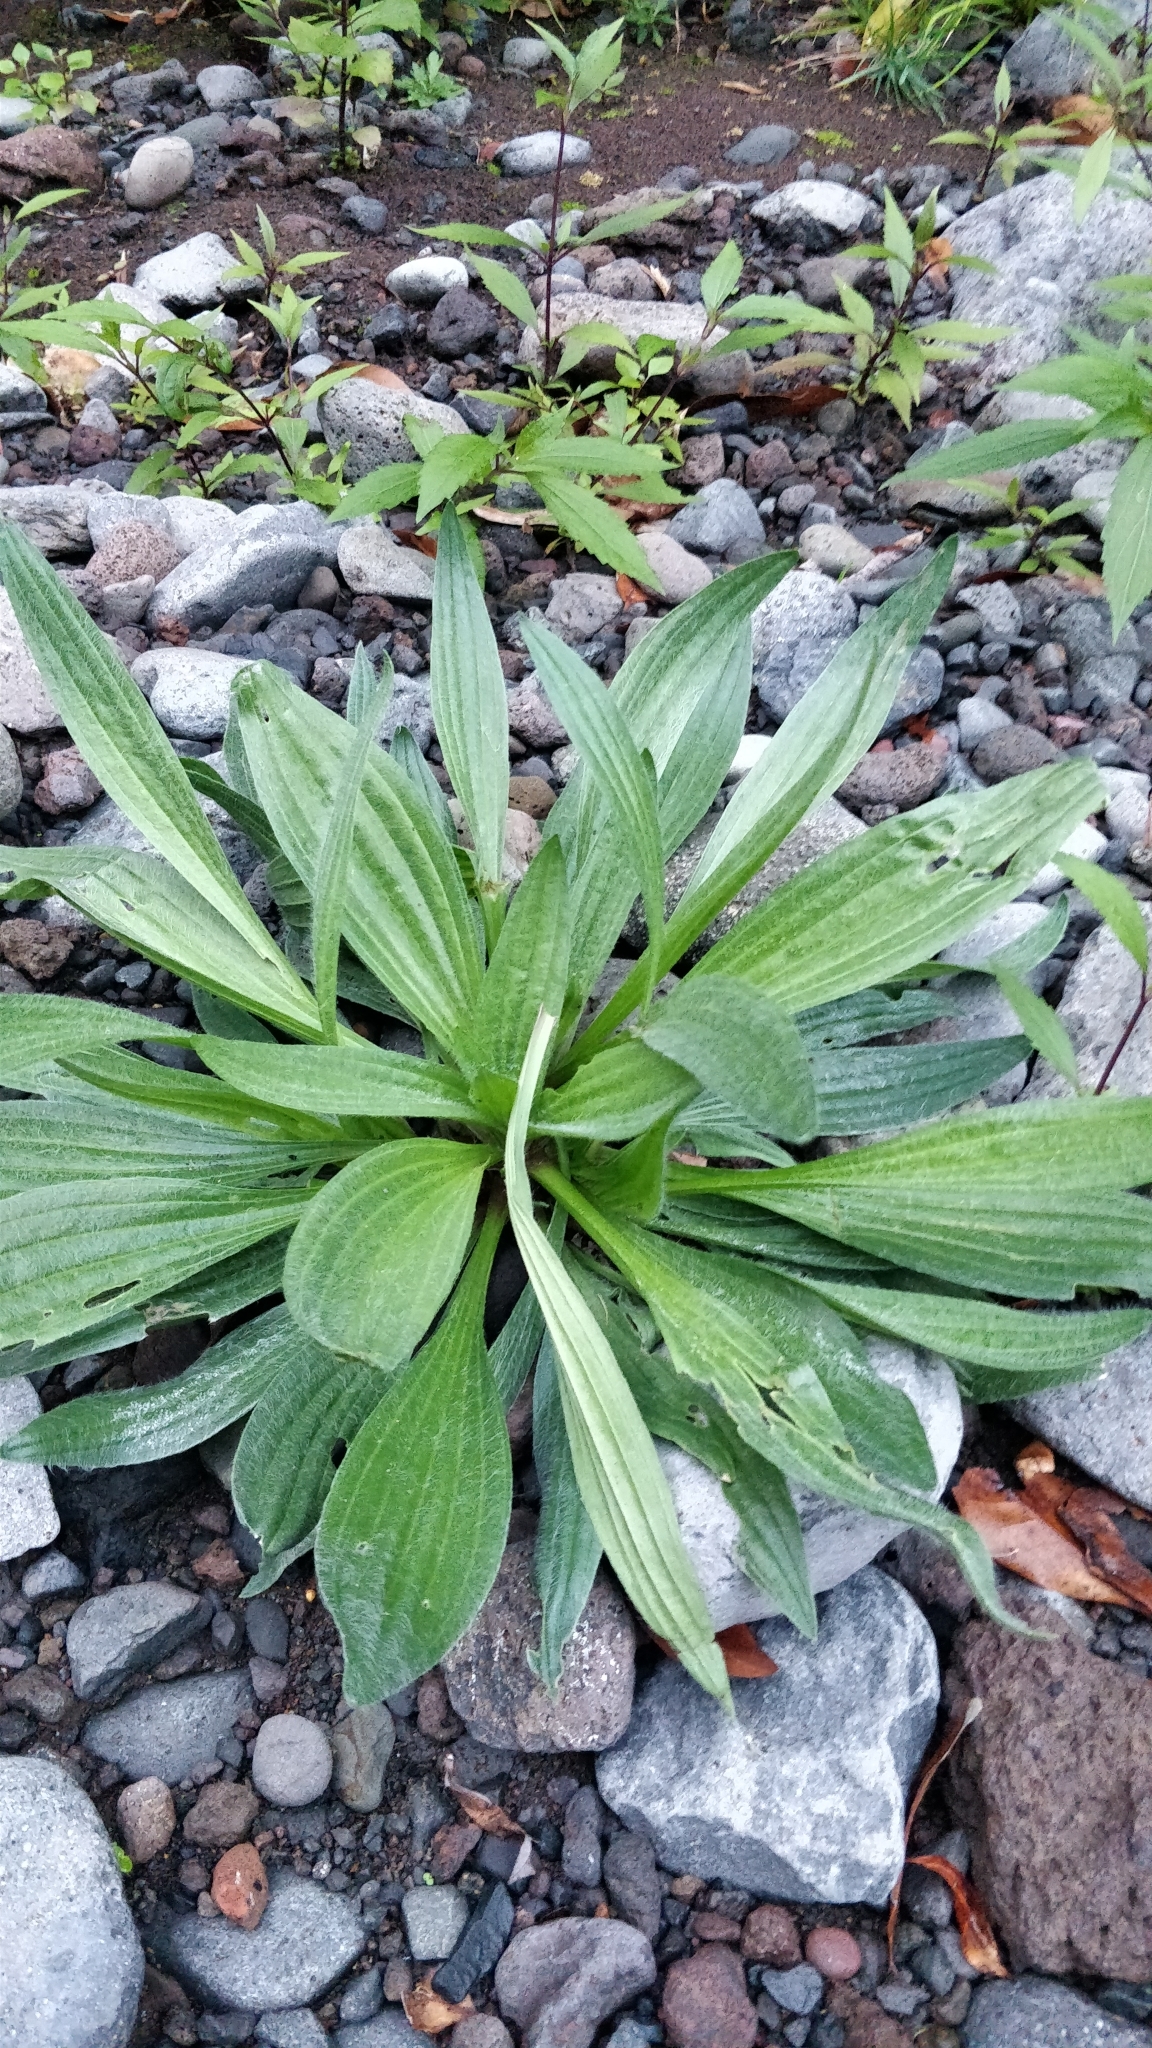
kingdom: Plantae
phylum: Tracheophyta
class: Magnoliopsida
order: Lamiales
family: Plantaginaceae
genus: Plantago
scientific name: Plantago lanceolata
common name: Ribwort plantain
